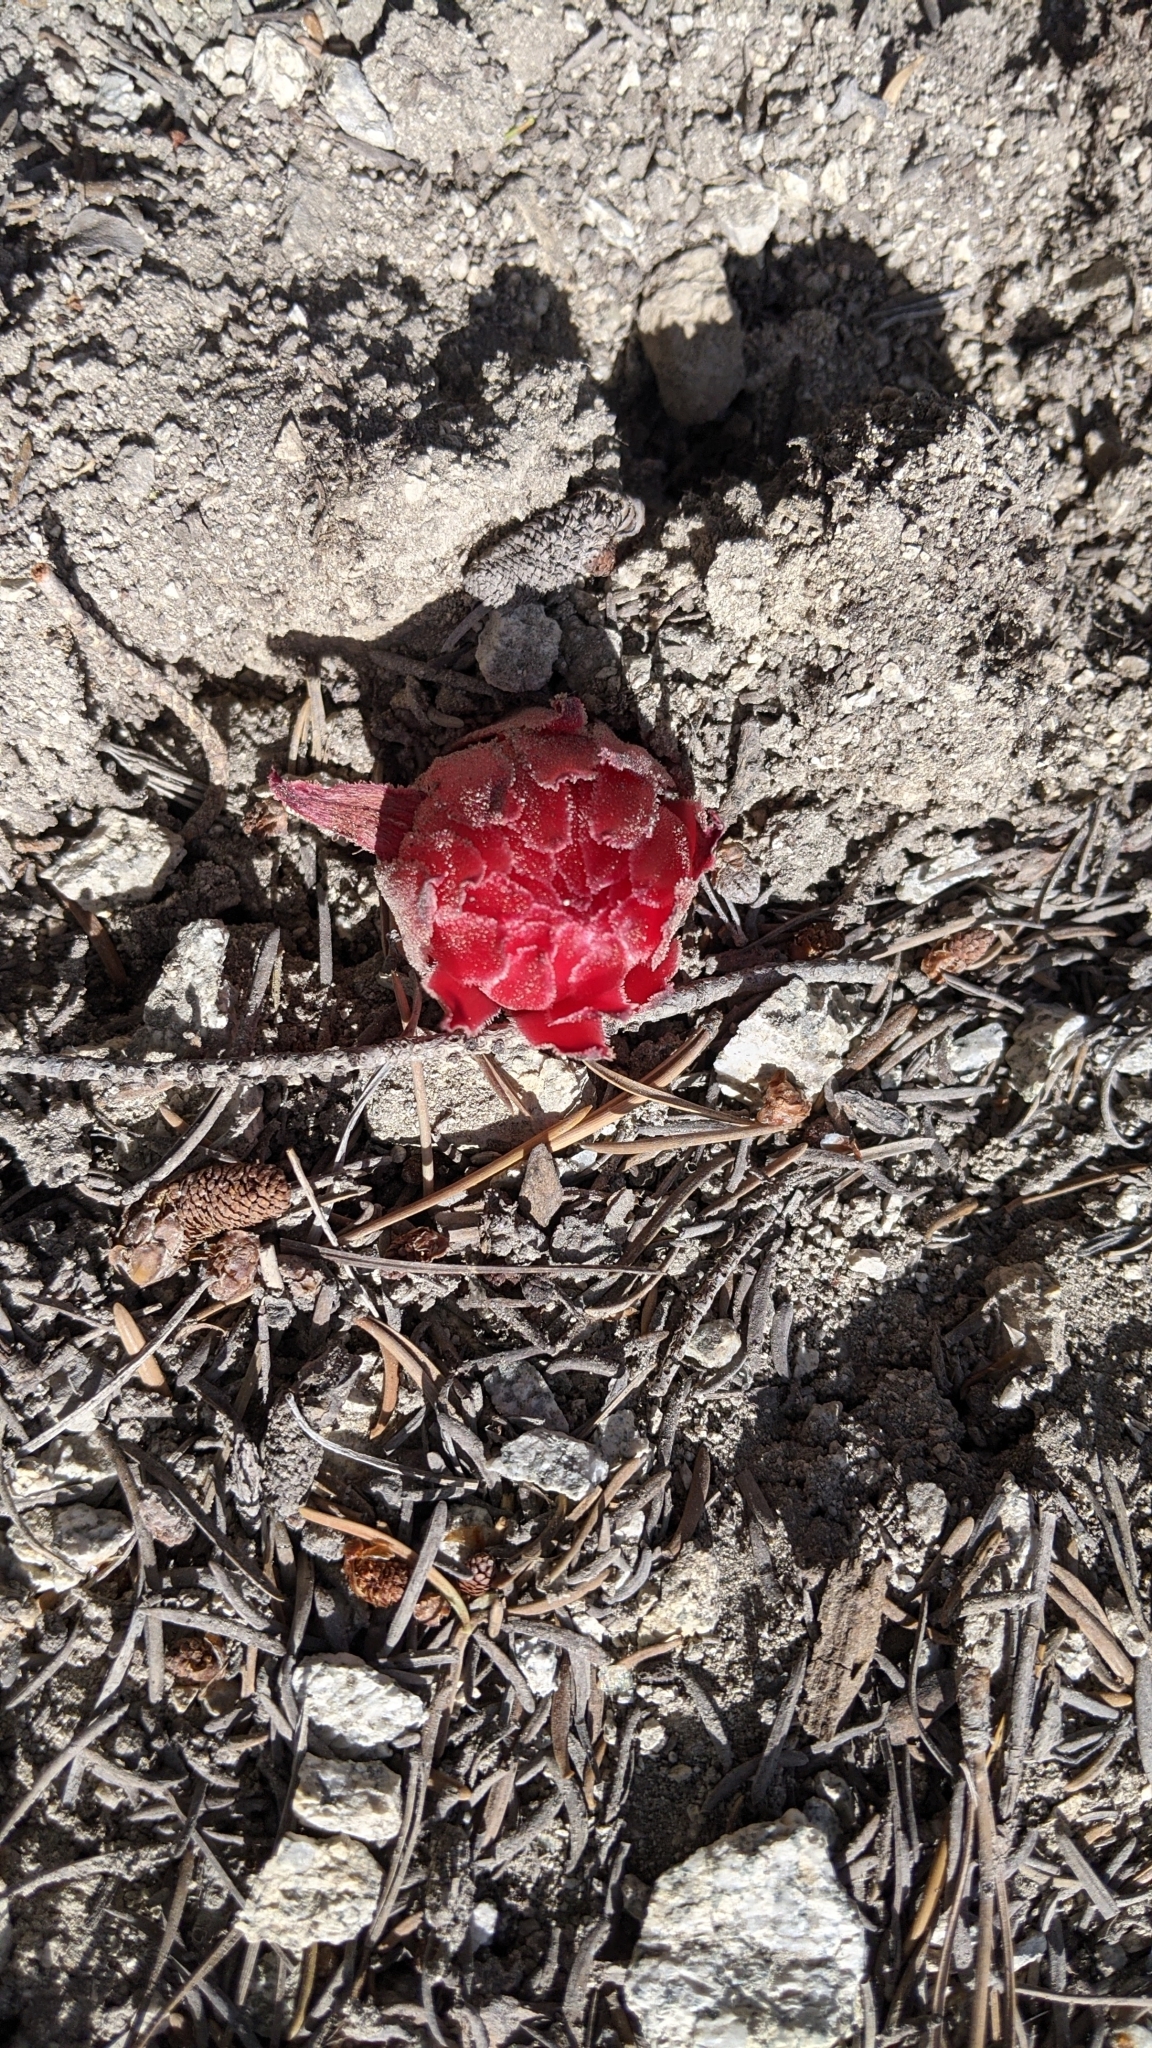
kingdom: Plantae
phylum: Tracheophyta
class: Magnoliopsida
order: Ericales
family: Ericaceae
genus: Sarcodes
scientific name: Sarcodes sanguinea
